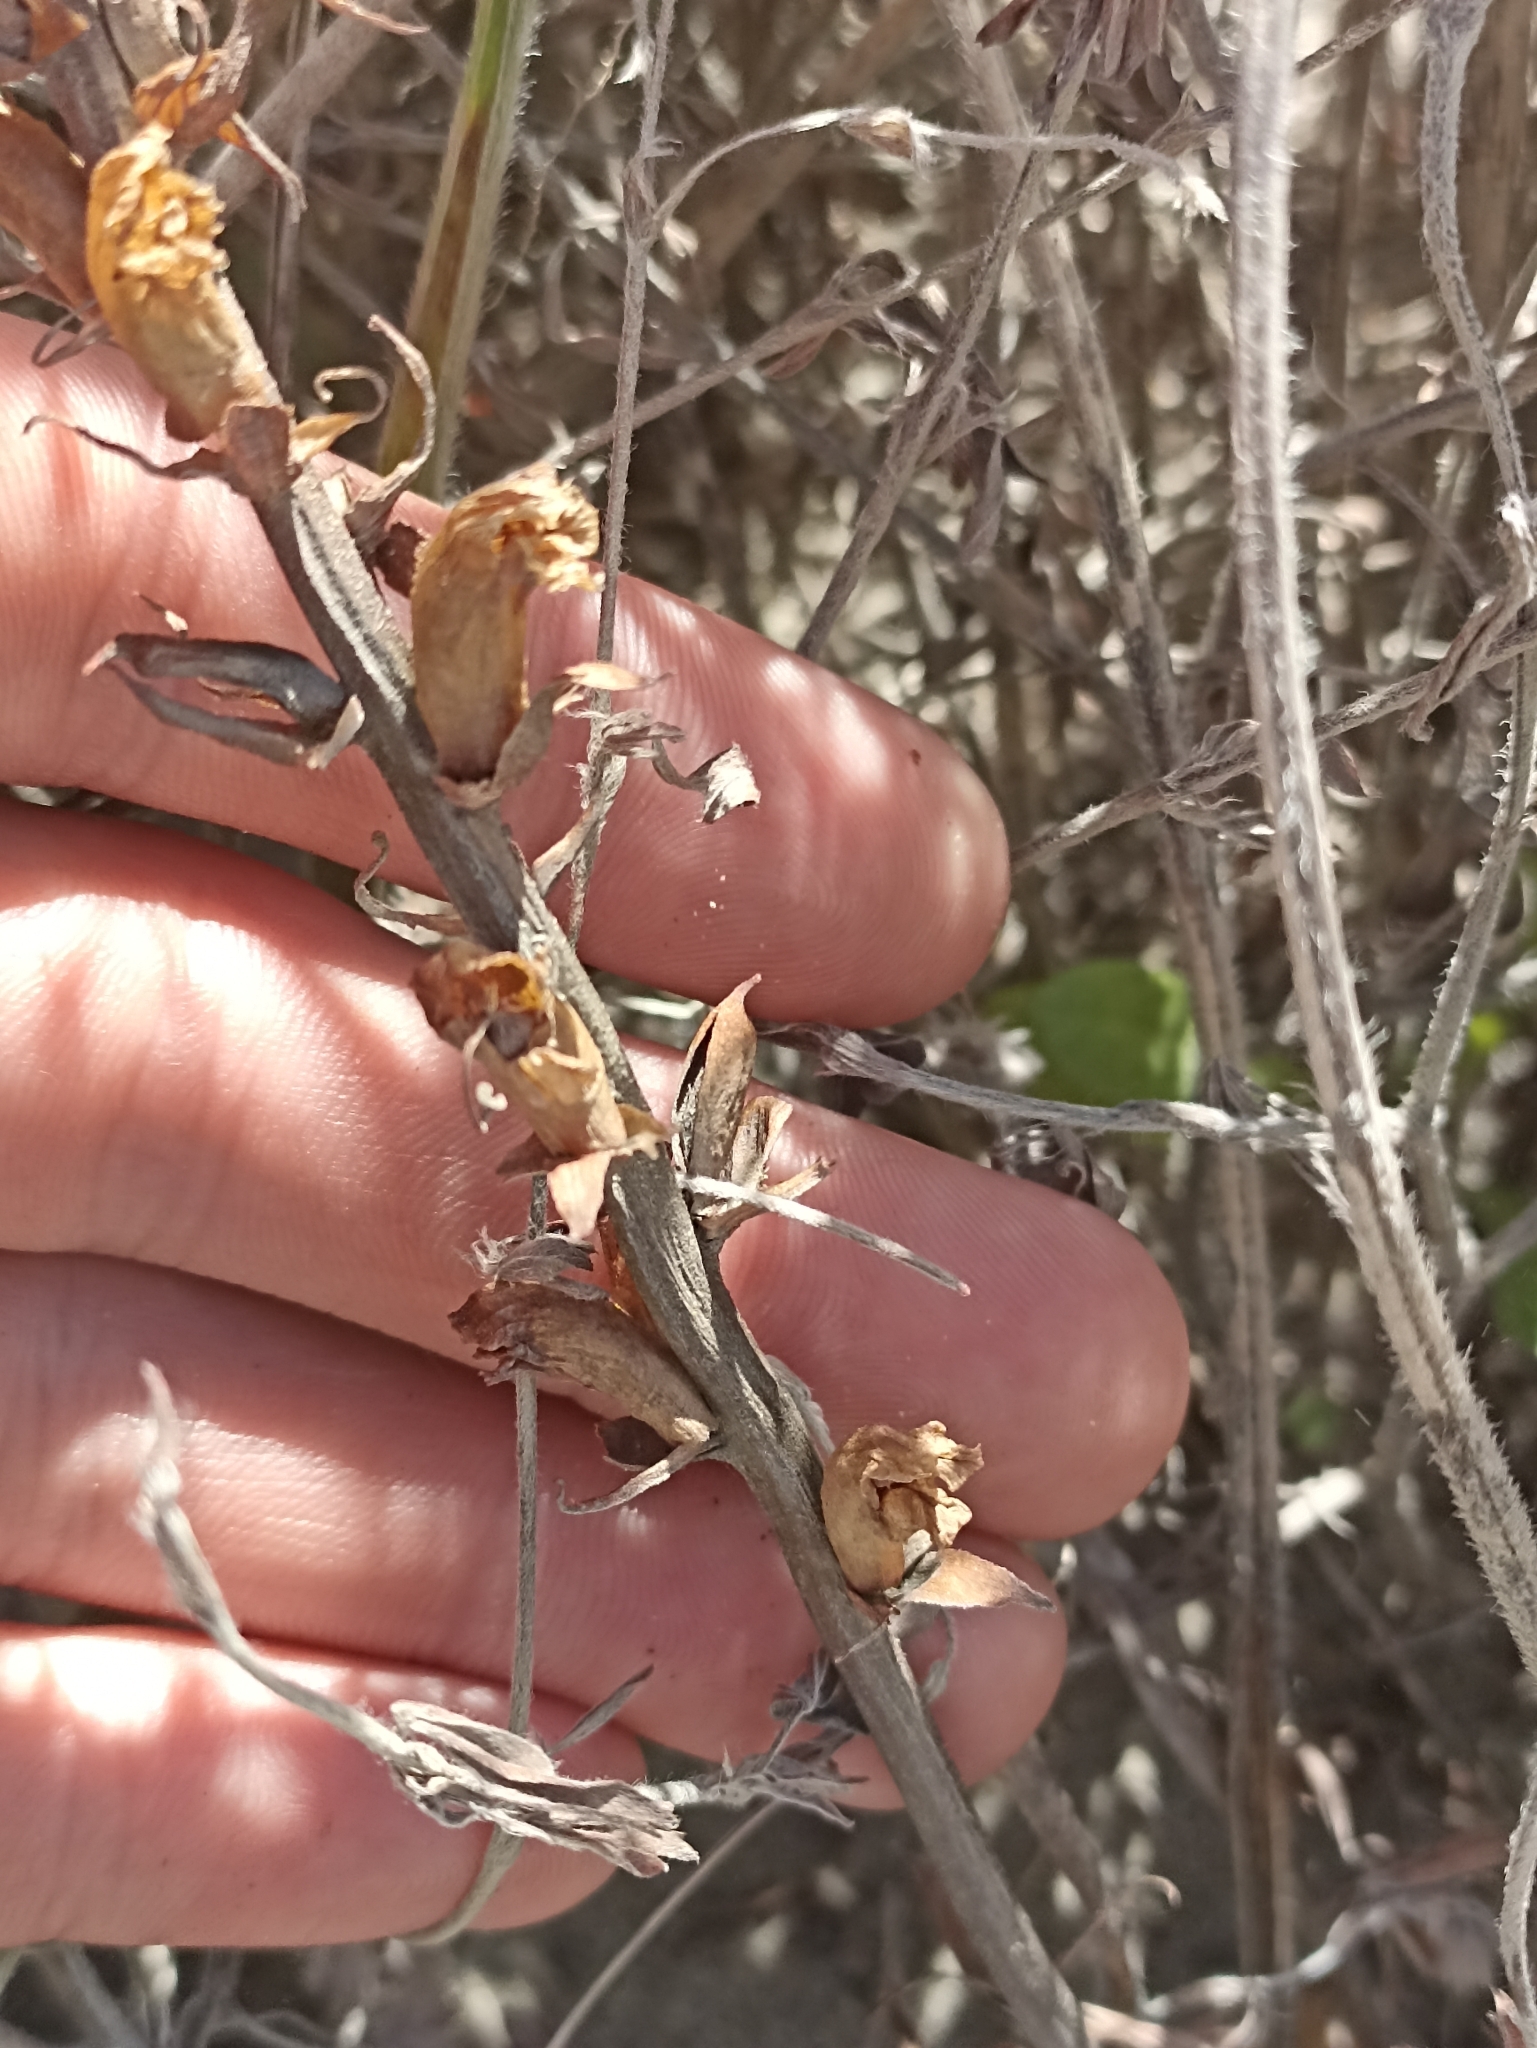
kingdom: Plantae
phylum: Tracheophyta
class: Magnoliopsida
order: Lamiales
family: Orobanchaceae
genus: Orobanche
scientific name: Orobanche minor
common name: Common broomrape
